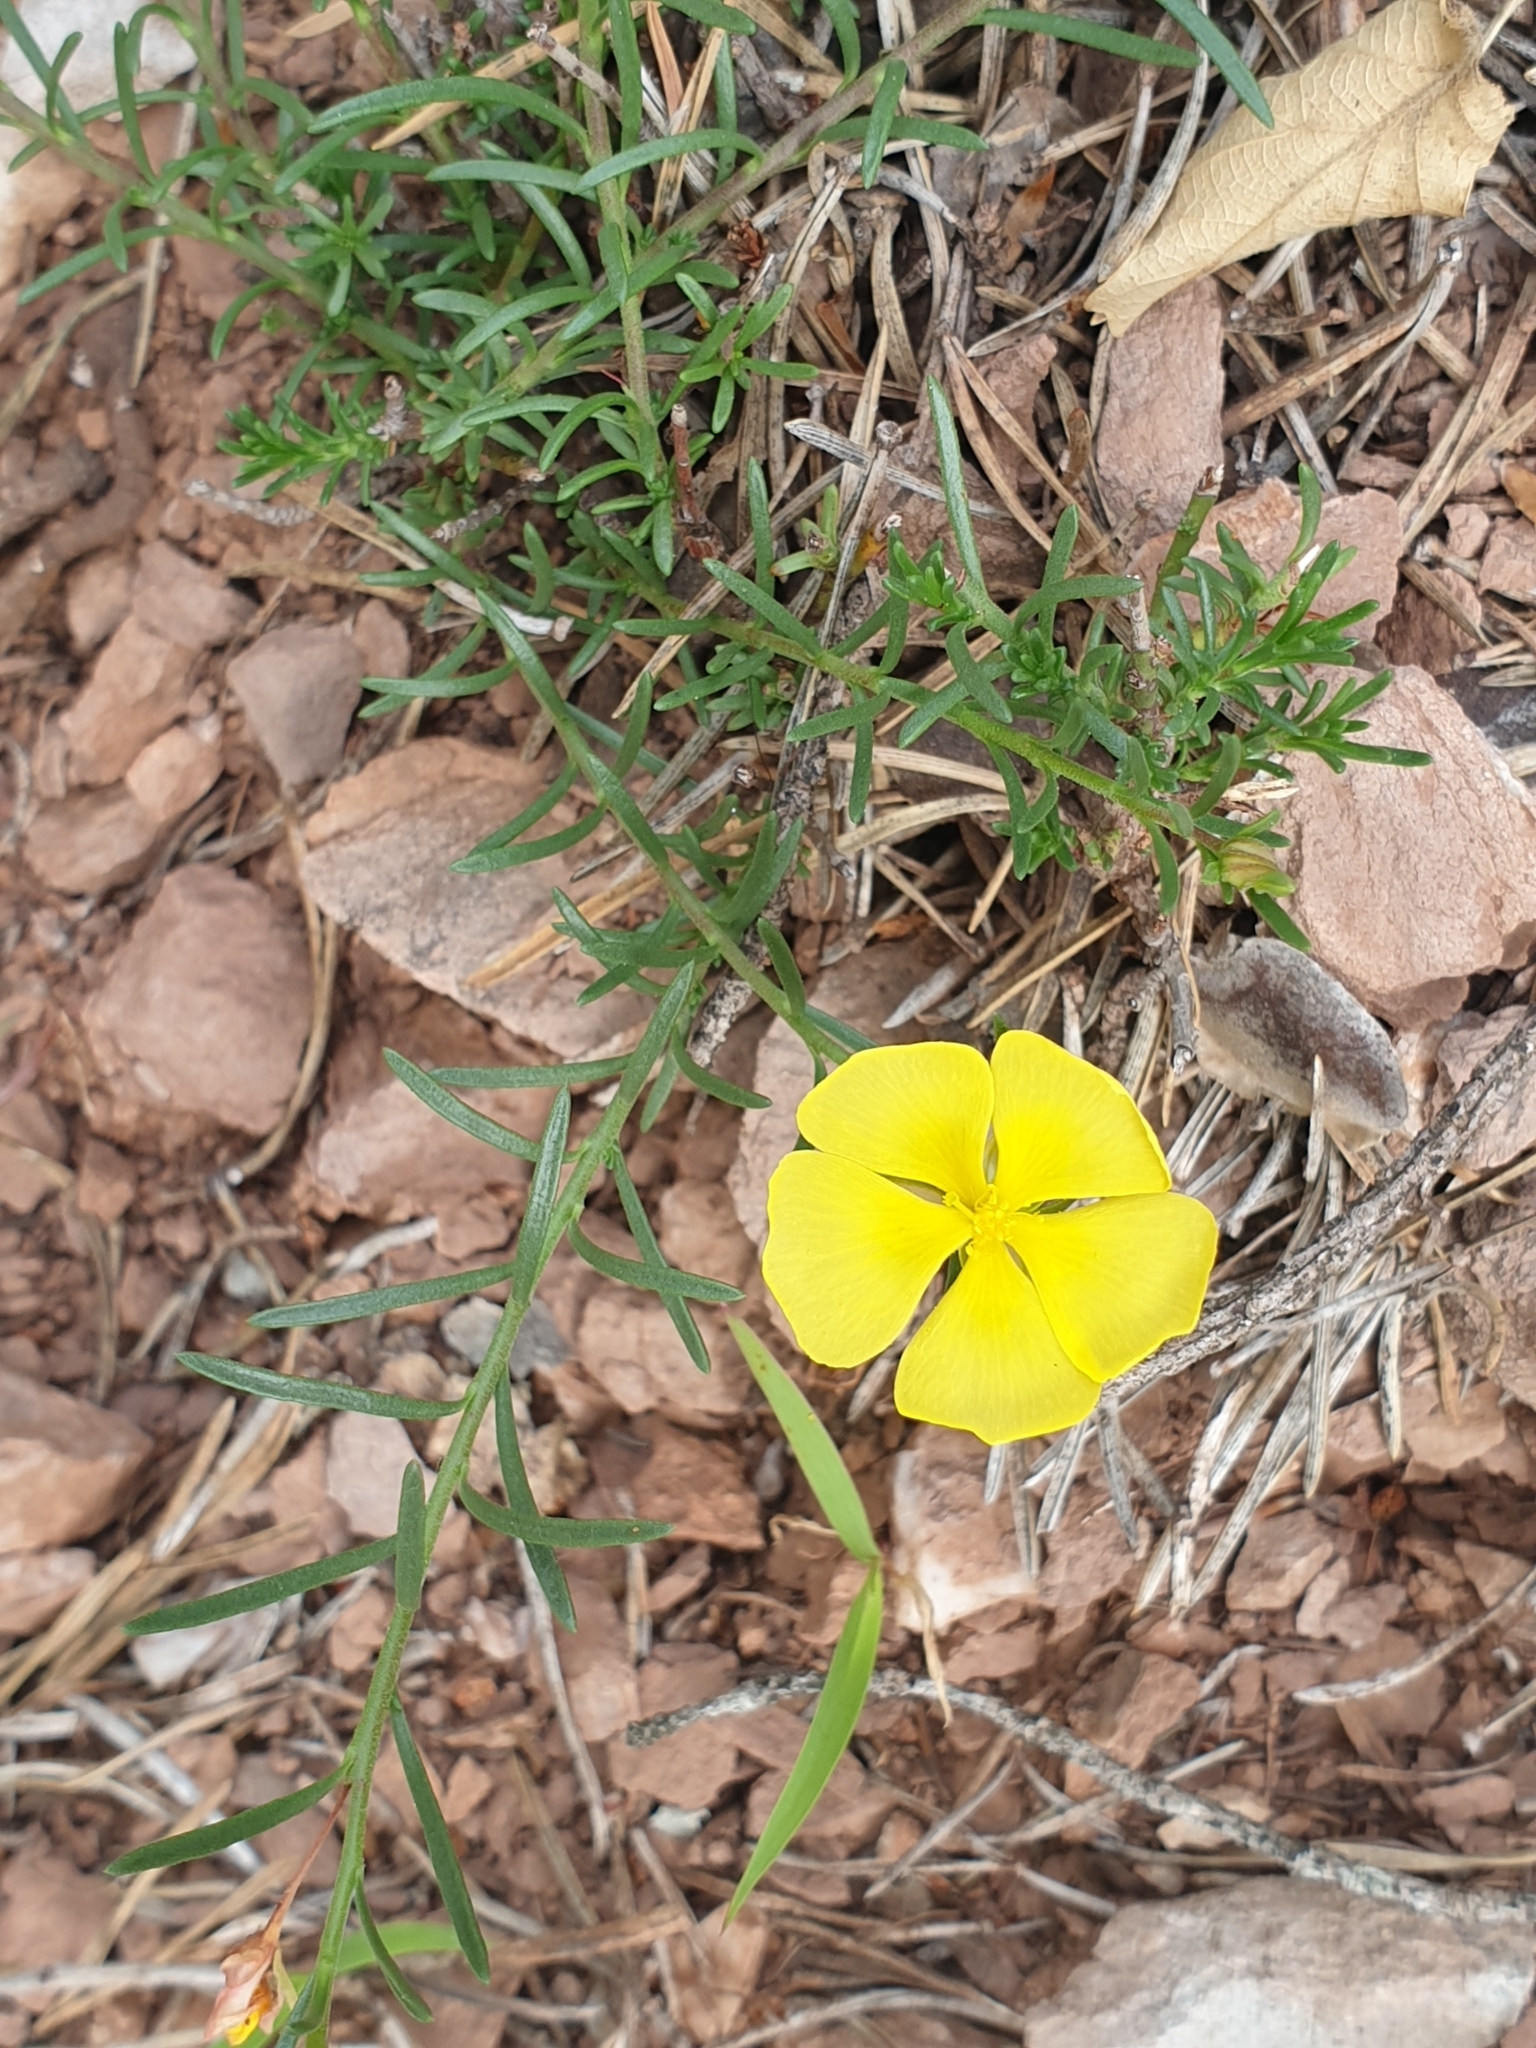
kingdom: Plantae
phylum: Tracheophyta
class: Magnoliopsida
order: Malvales
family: Cistaceae
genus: Fumana
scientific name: Fumana procumbens
